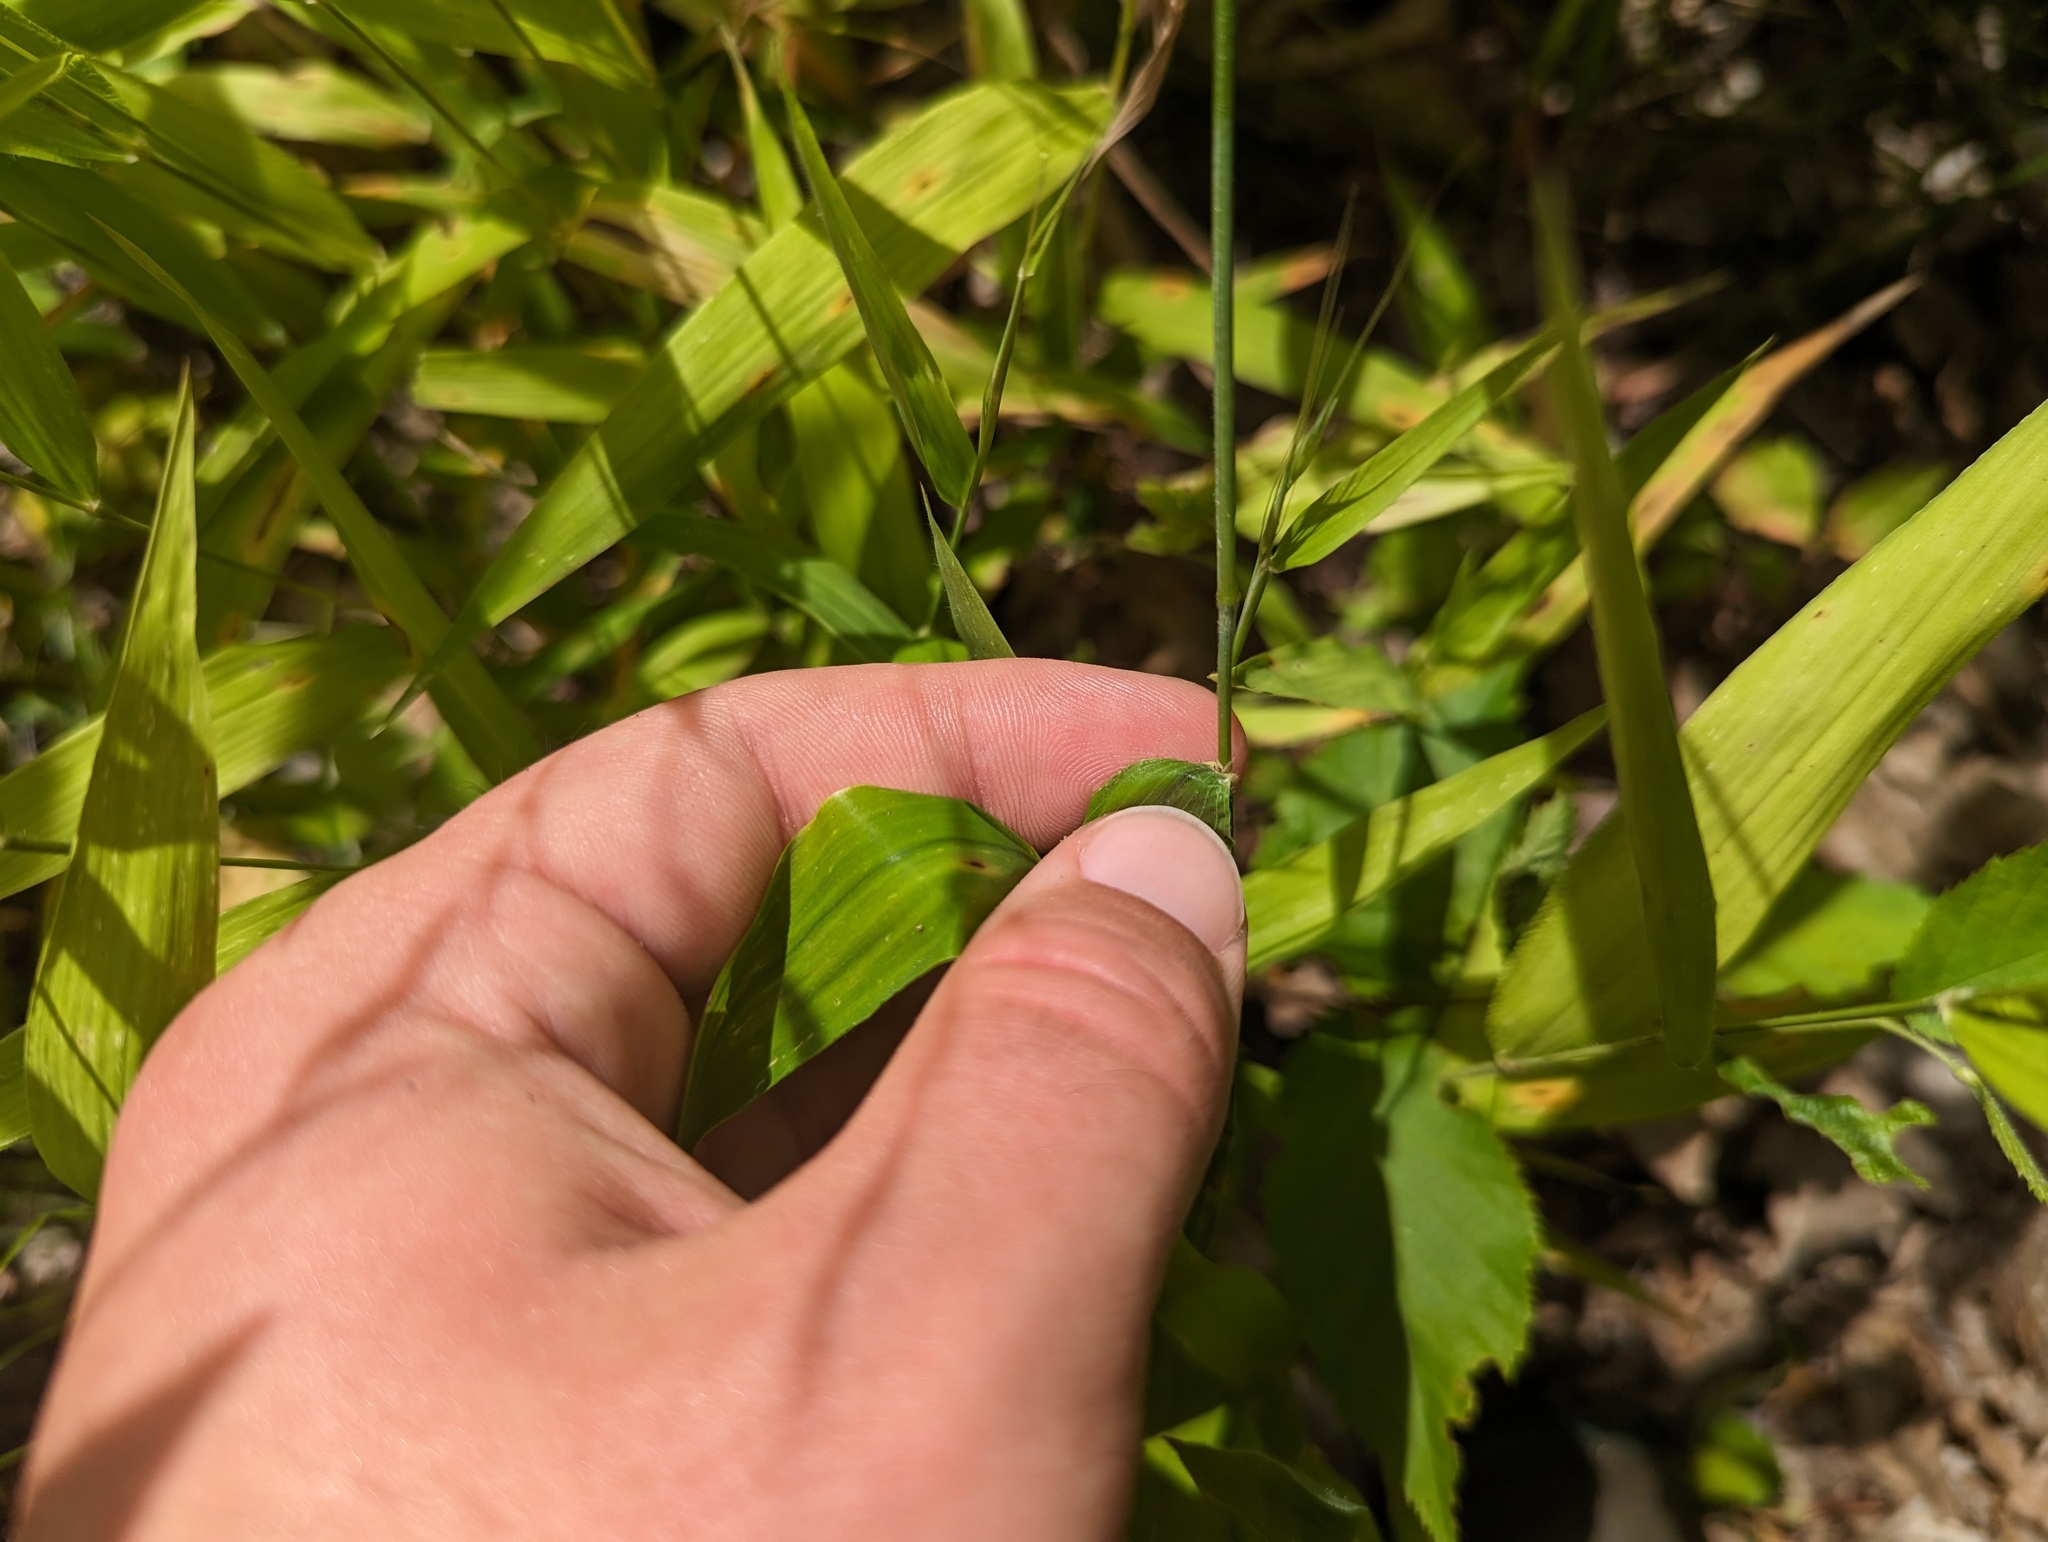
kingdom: Plantae
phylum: Tracheophyta
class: Liliopsida
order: Poales
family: Poaceae
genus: Brachyelytrum
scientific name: Brachyelytrum erectum
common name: Bearded shorthusk
